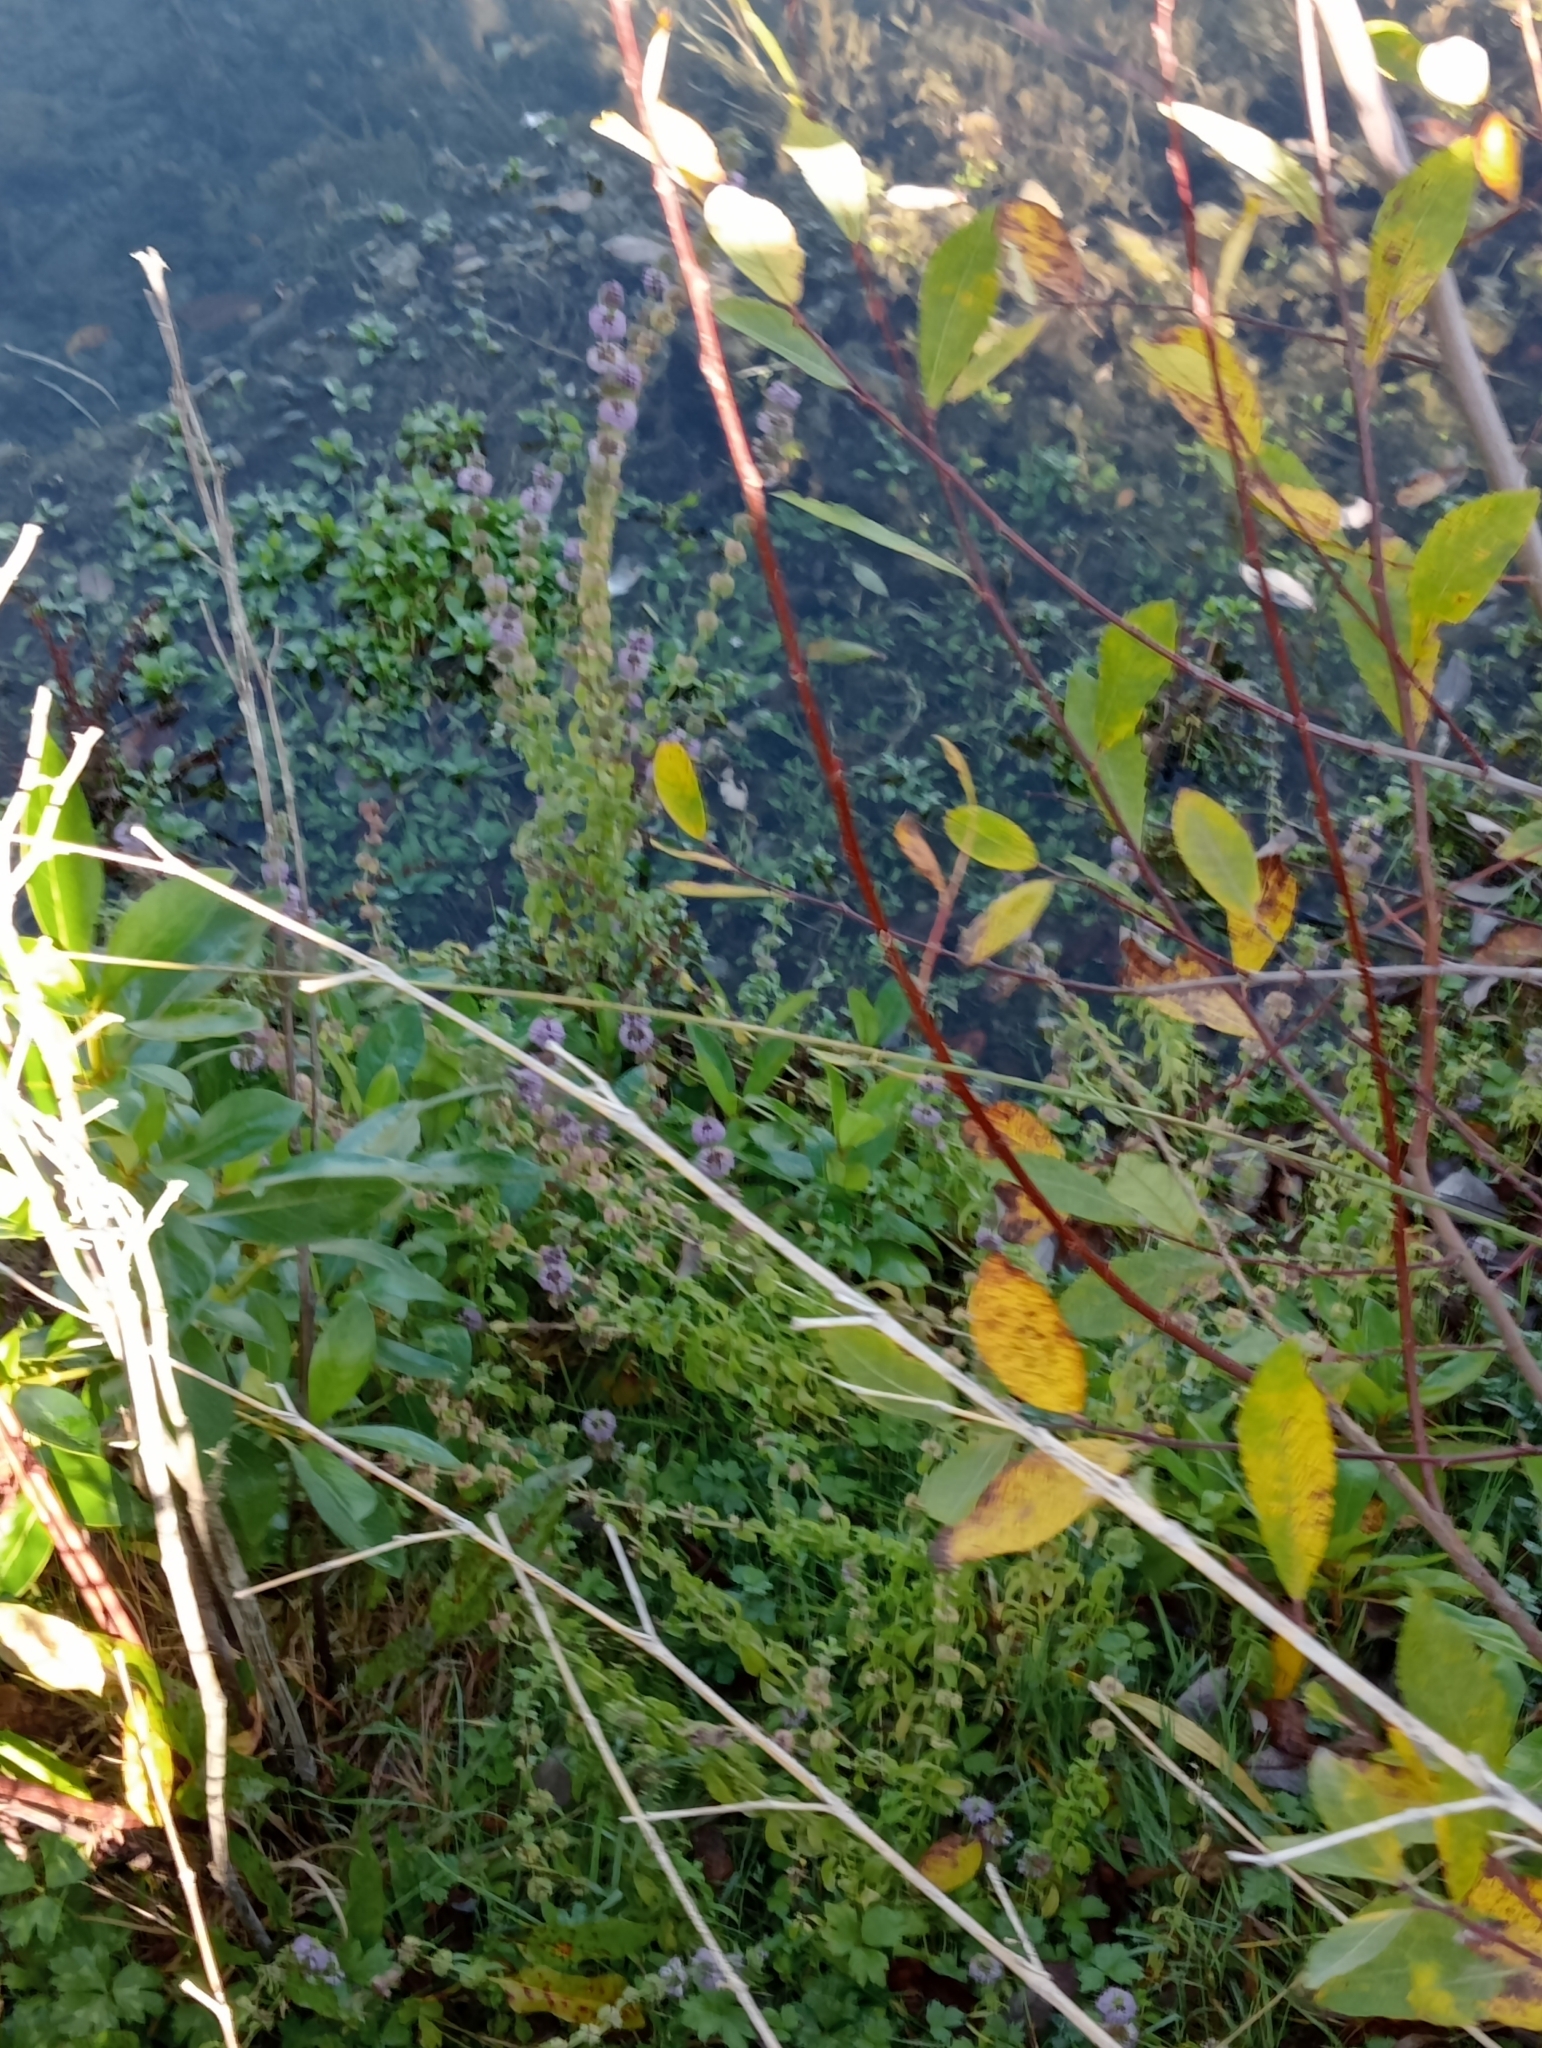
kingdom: Plantae
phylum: Tracheophyta
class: Magnoliopsida
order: Lamiales
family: Lamiaceae
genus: Mentha
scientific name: Mentha pulegium
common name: Pennyroyal
